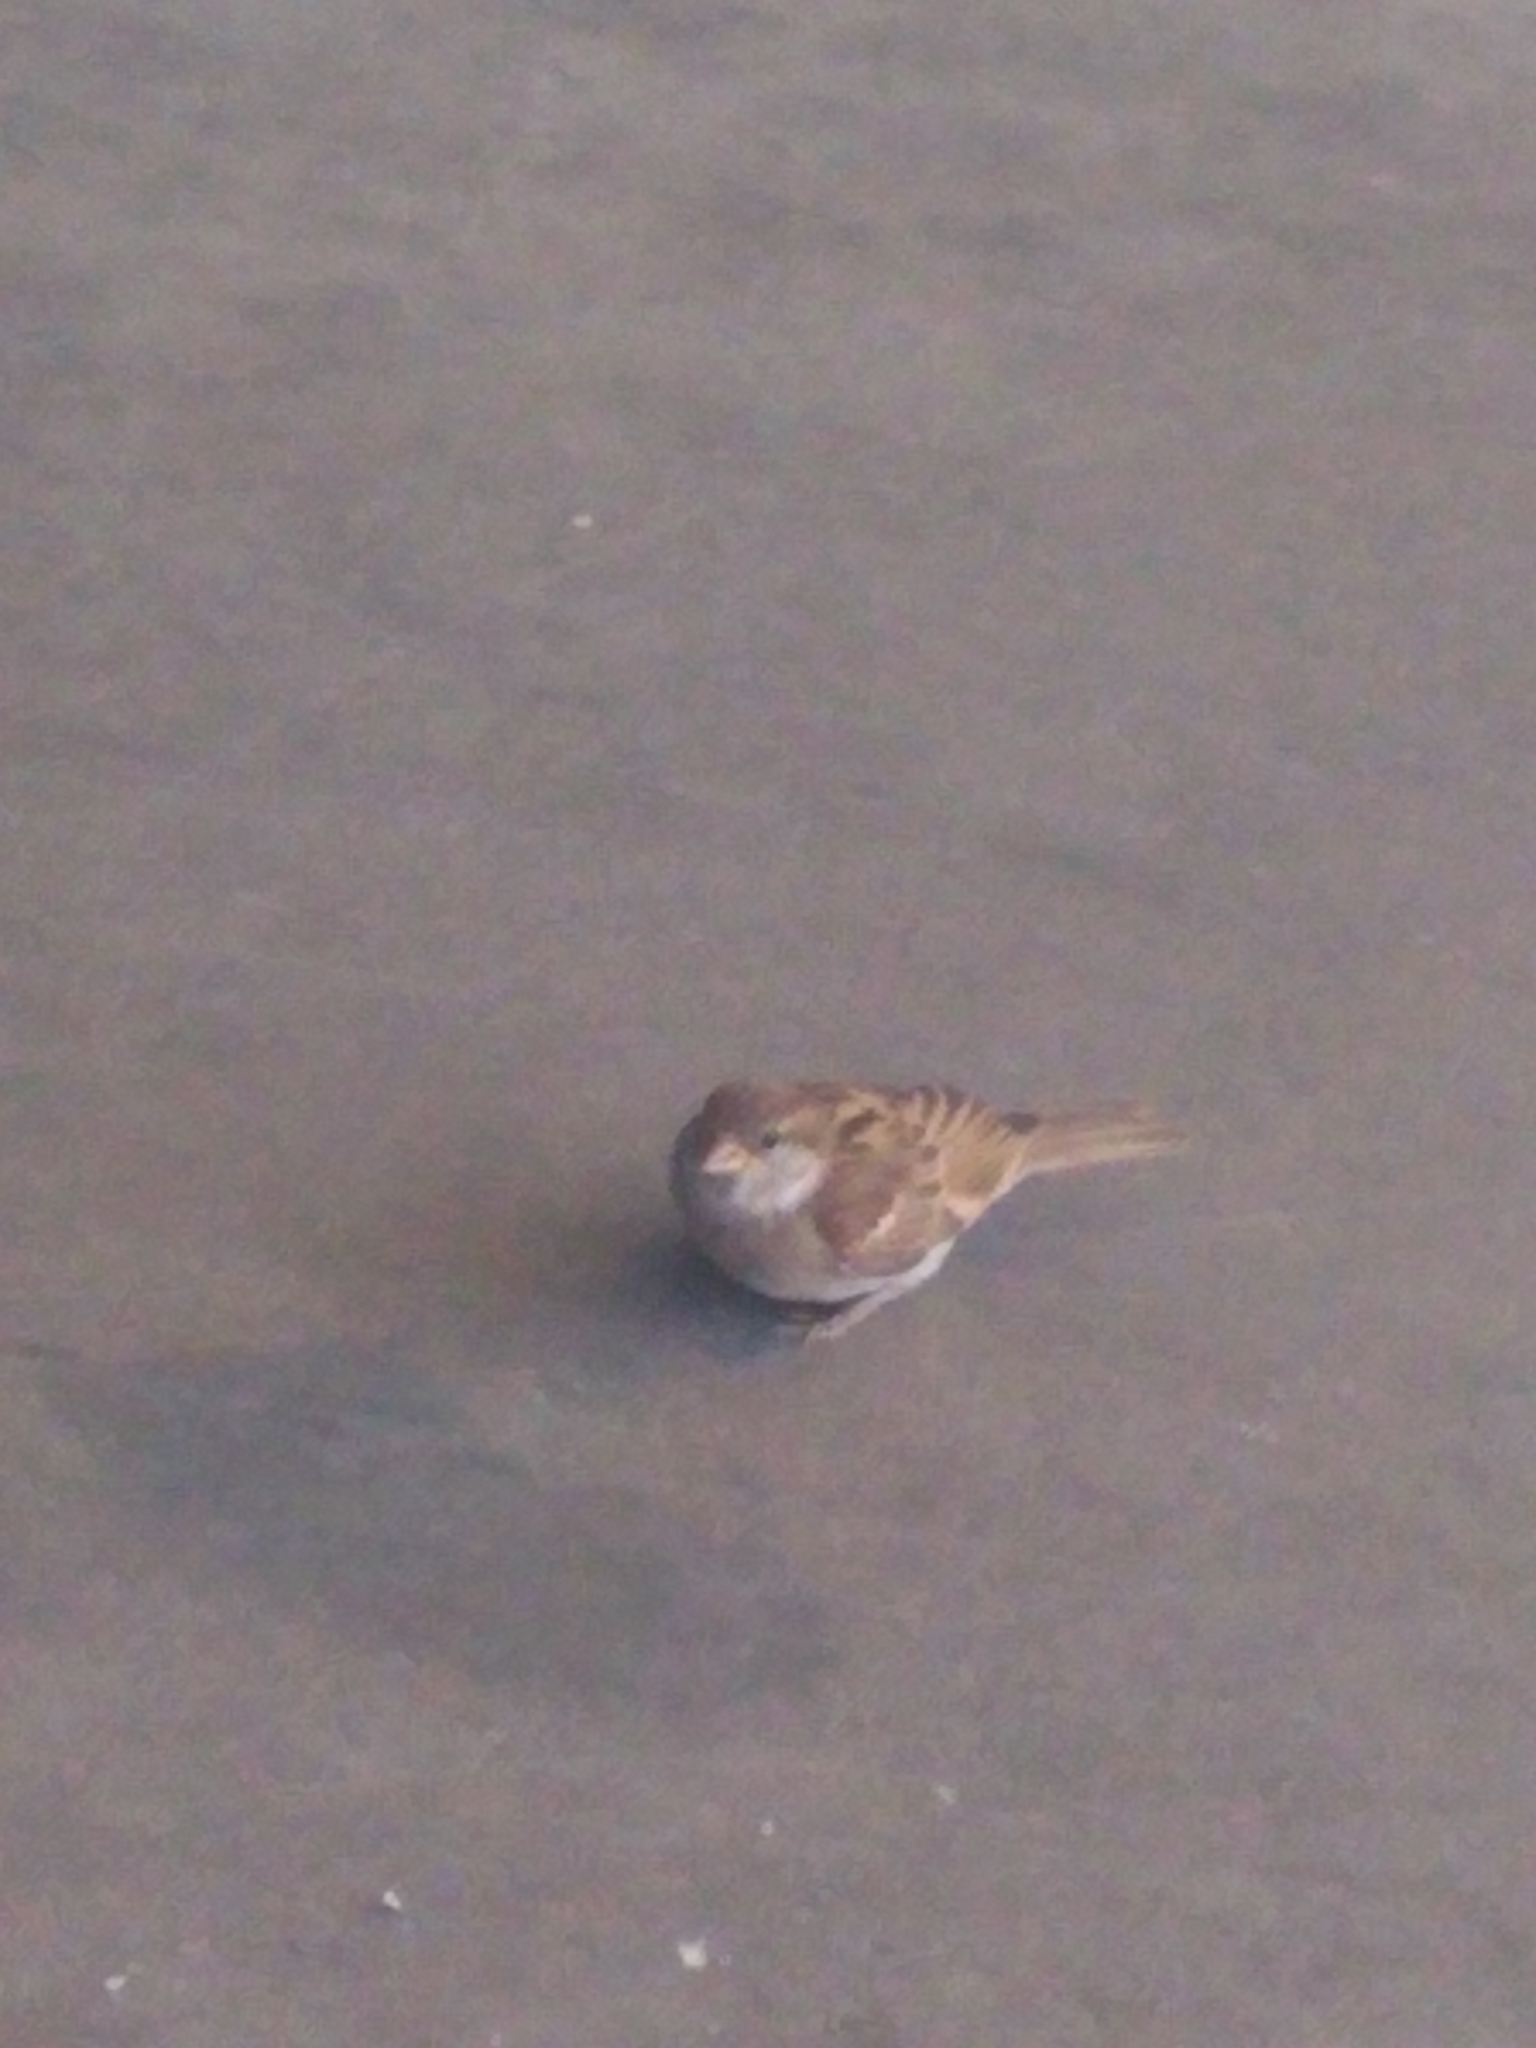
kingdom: Animalia
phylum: Chordata
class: Aves
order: Passeriformes
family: Passeridae
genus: Passer
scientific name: Passer domesticus
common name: House sparrow
